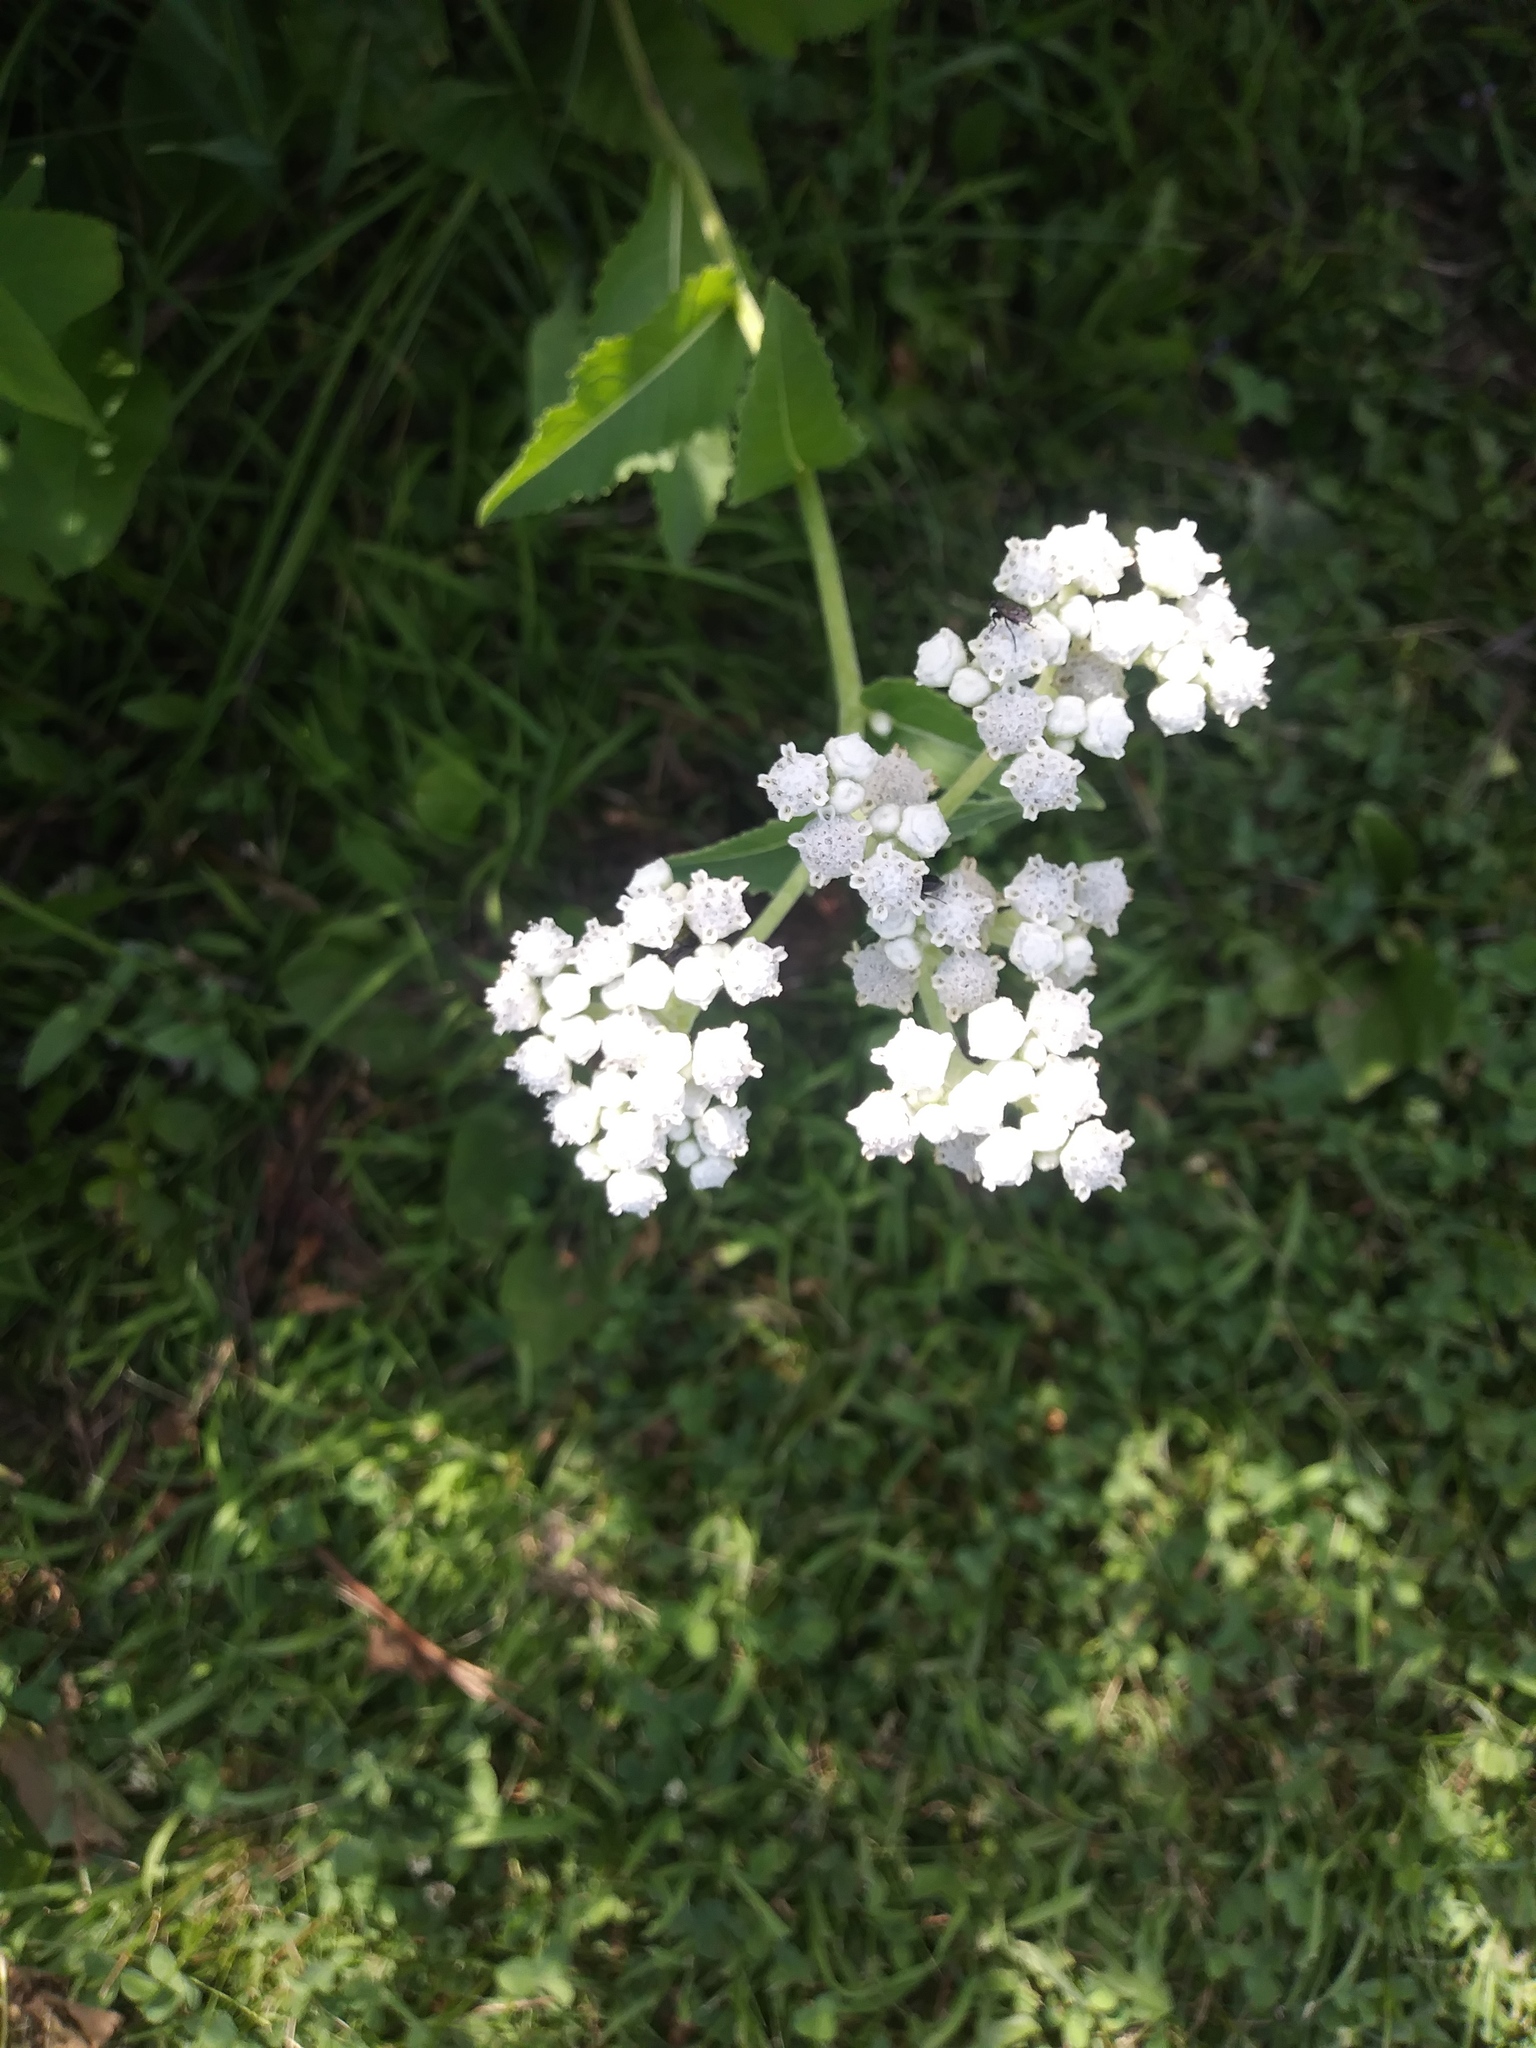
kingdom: Plantae
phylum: Tracheophyta
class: Magnoliopsida
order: Asterales
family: Asteraceae
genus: Parthenium
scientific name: Parthenium integrifolium
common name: American feverfew
